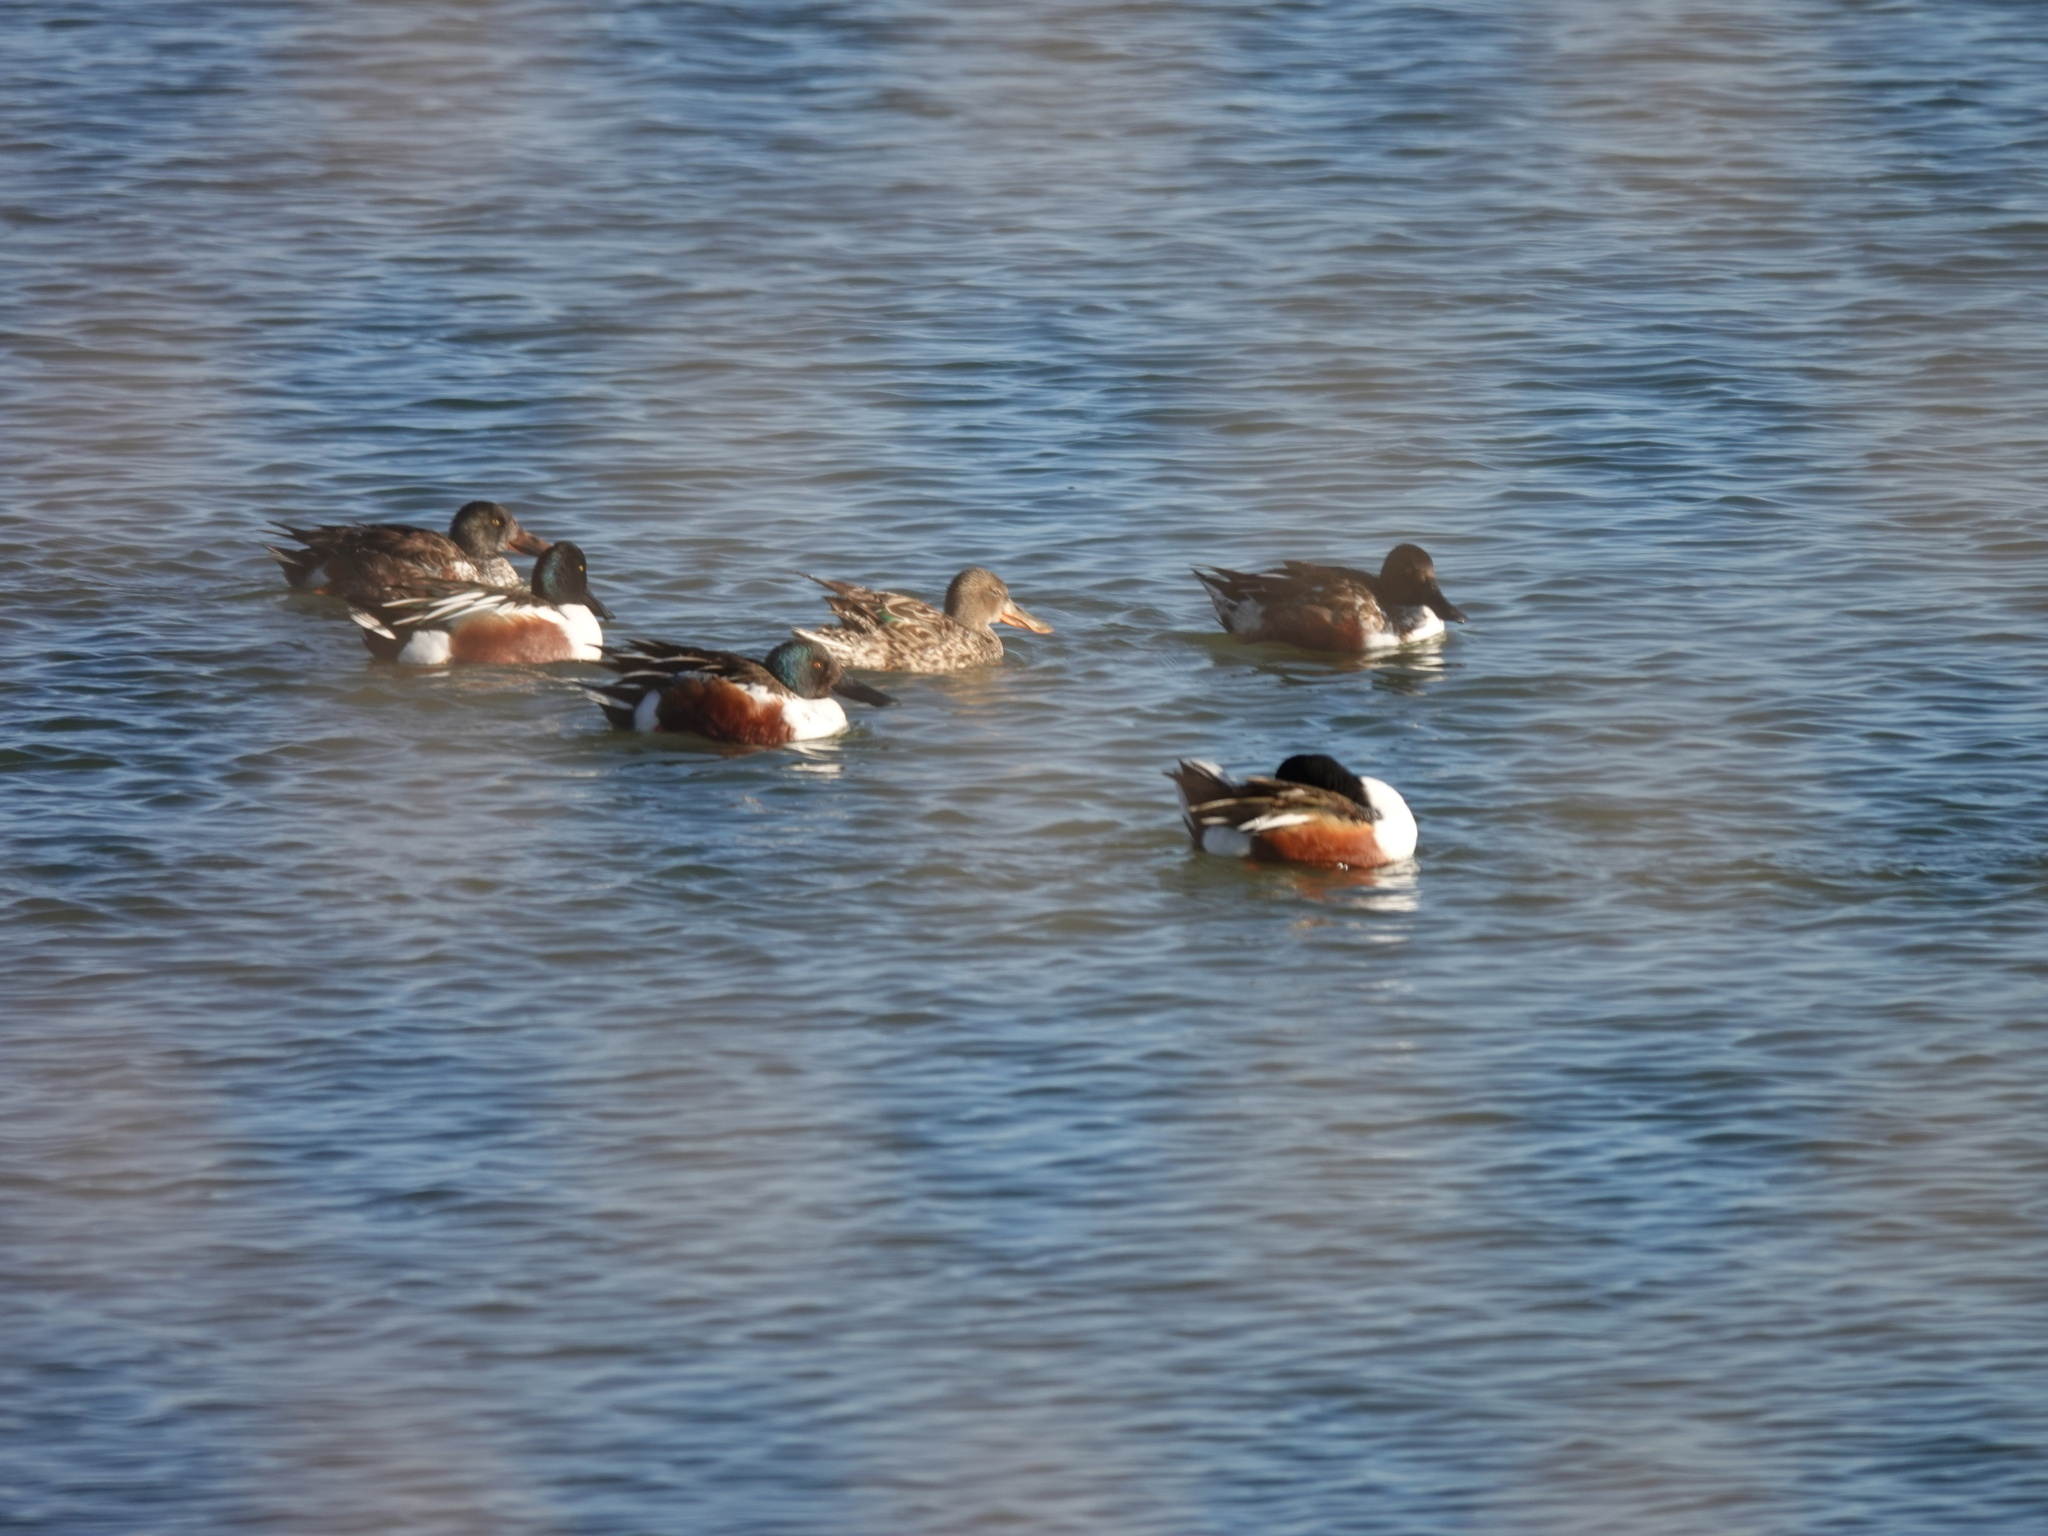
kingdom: Animalia
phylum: Chordata
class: Aves
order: Anseriformes
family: Anatidae
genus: Spatula
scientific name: Spatula clypeata
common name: Northern shoveler
